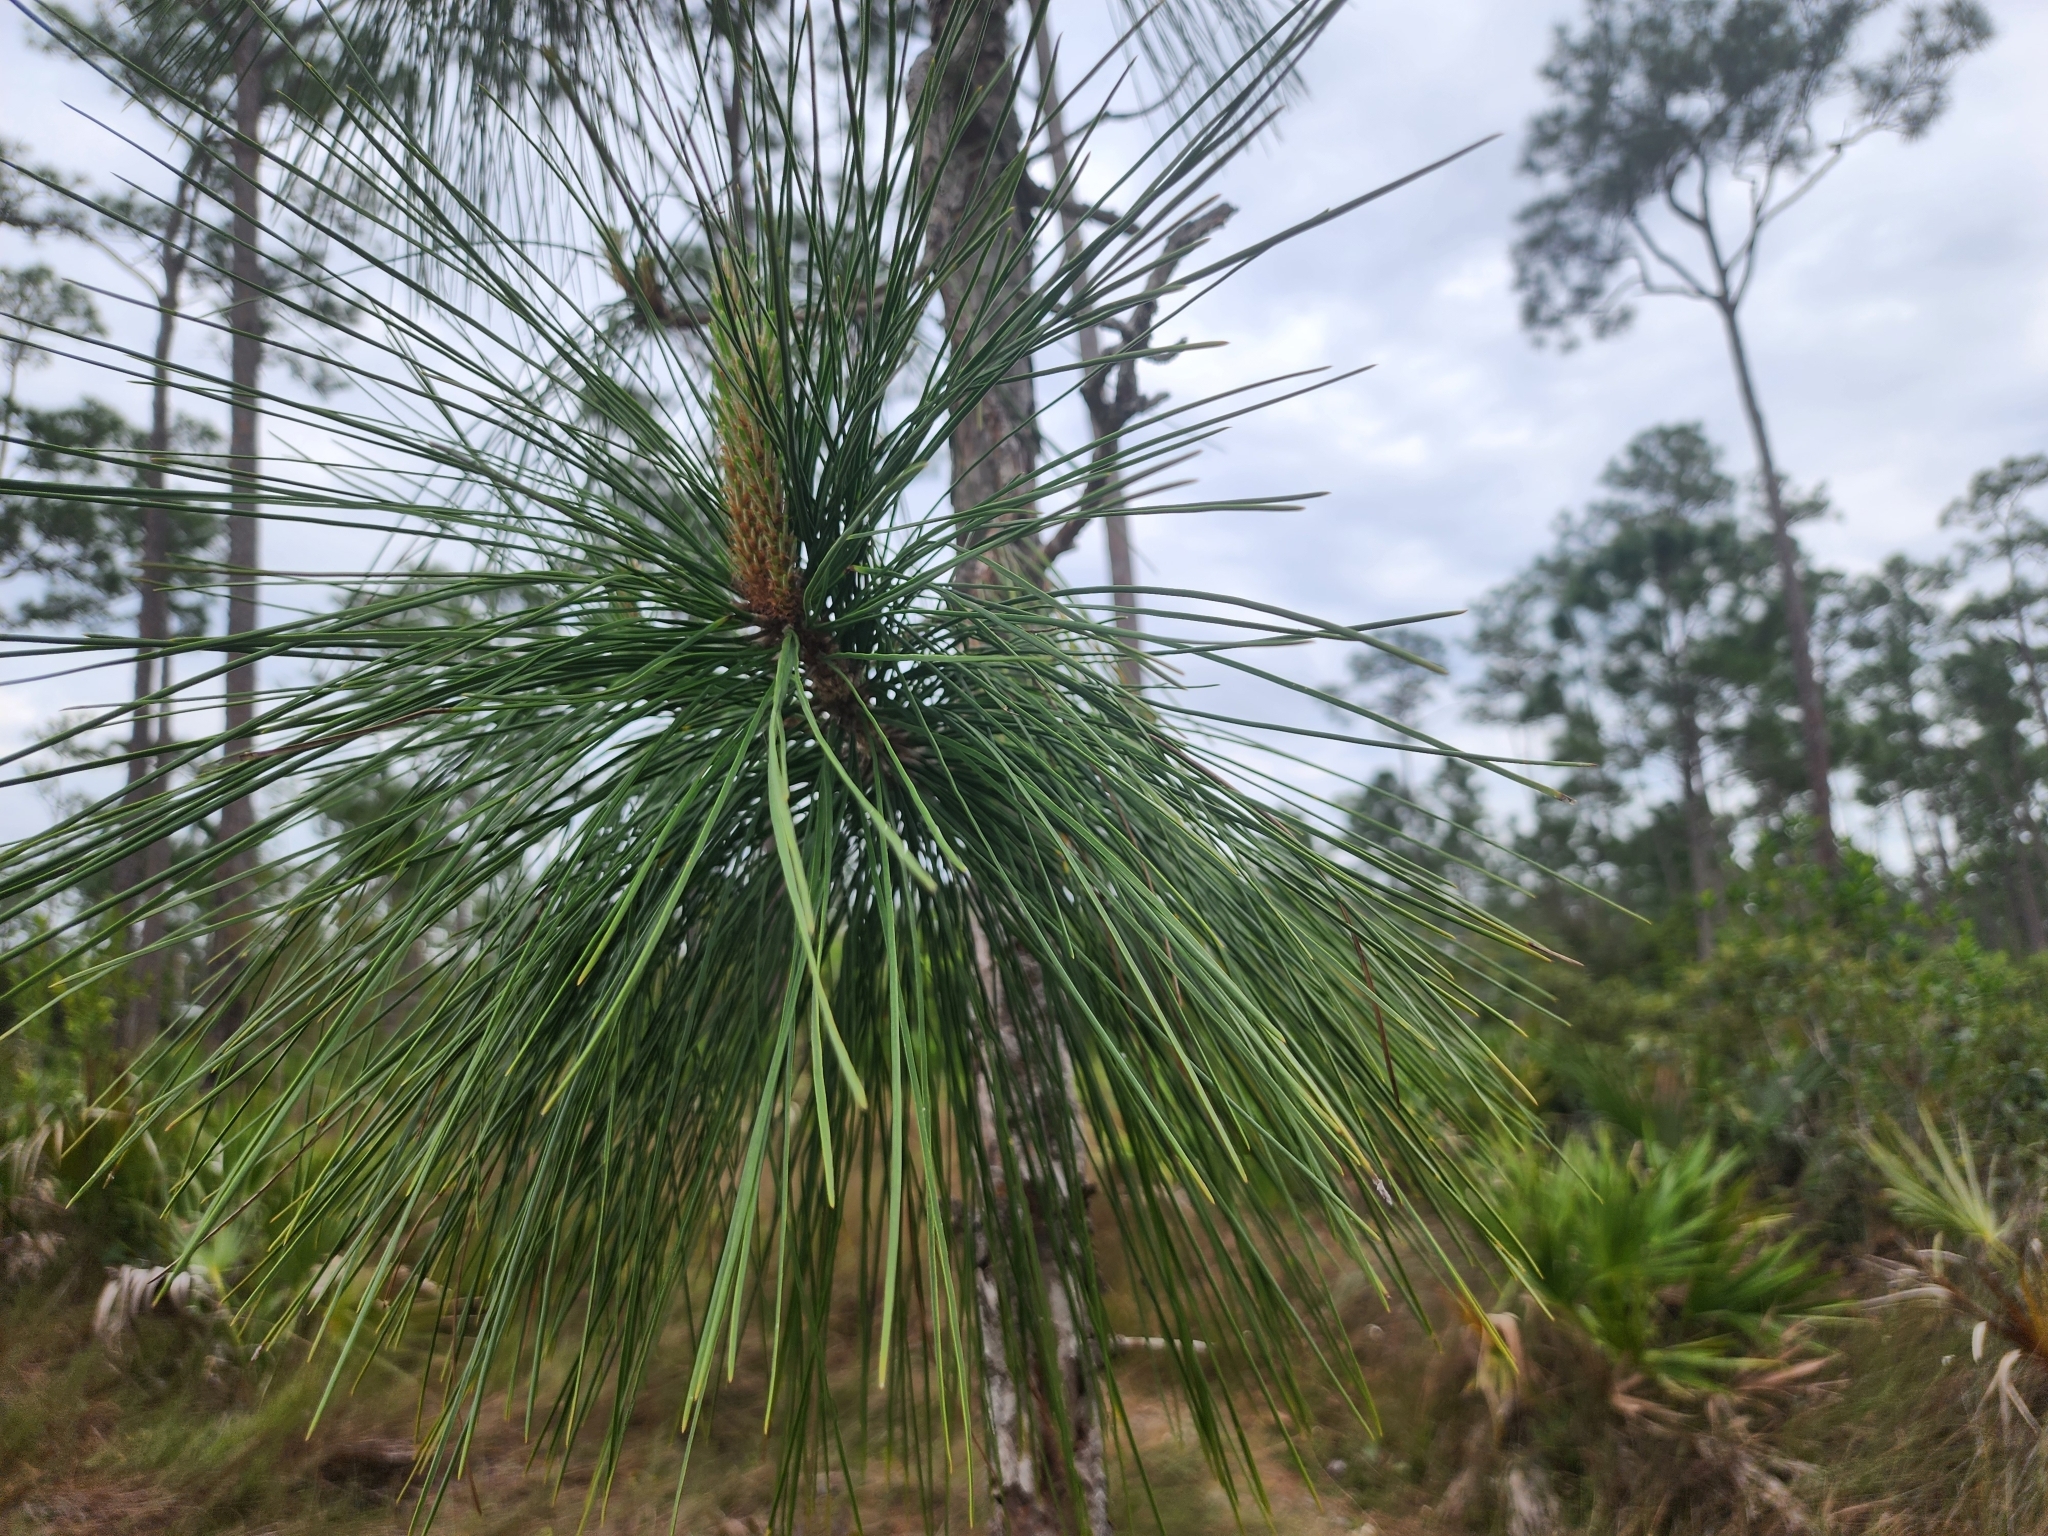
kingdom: Plantae
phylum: Tracheophyta
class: Pinopsida
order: Pinales
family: Pinaceae
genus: Pinus
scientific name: Pinus elliottii
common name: Slash pine
